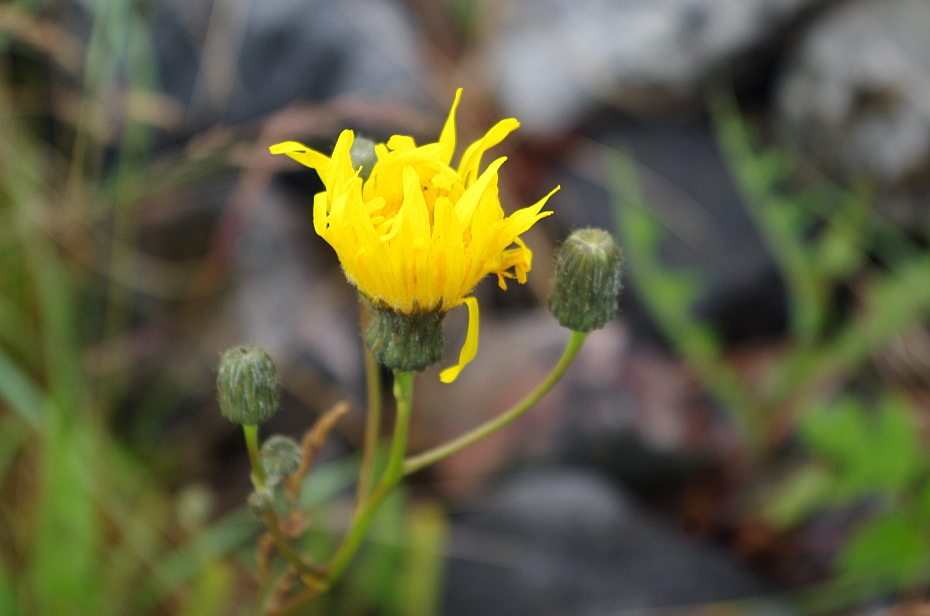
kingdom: Plantae
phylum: Tracheophyta
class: Magnoliopsida
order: Asterales
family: Asteraceae
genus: Sonchus
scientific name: Sonchus arvensis
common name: Perennial sow-thistle
